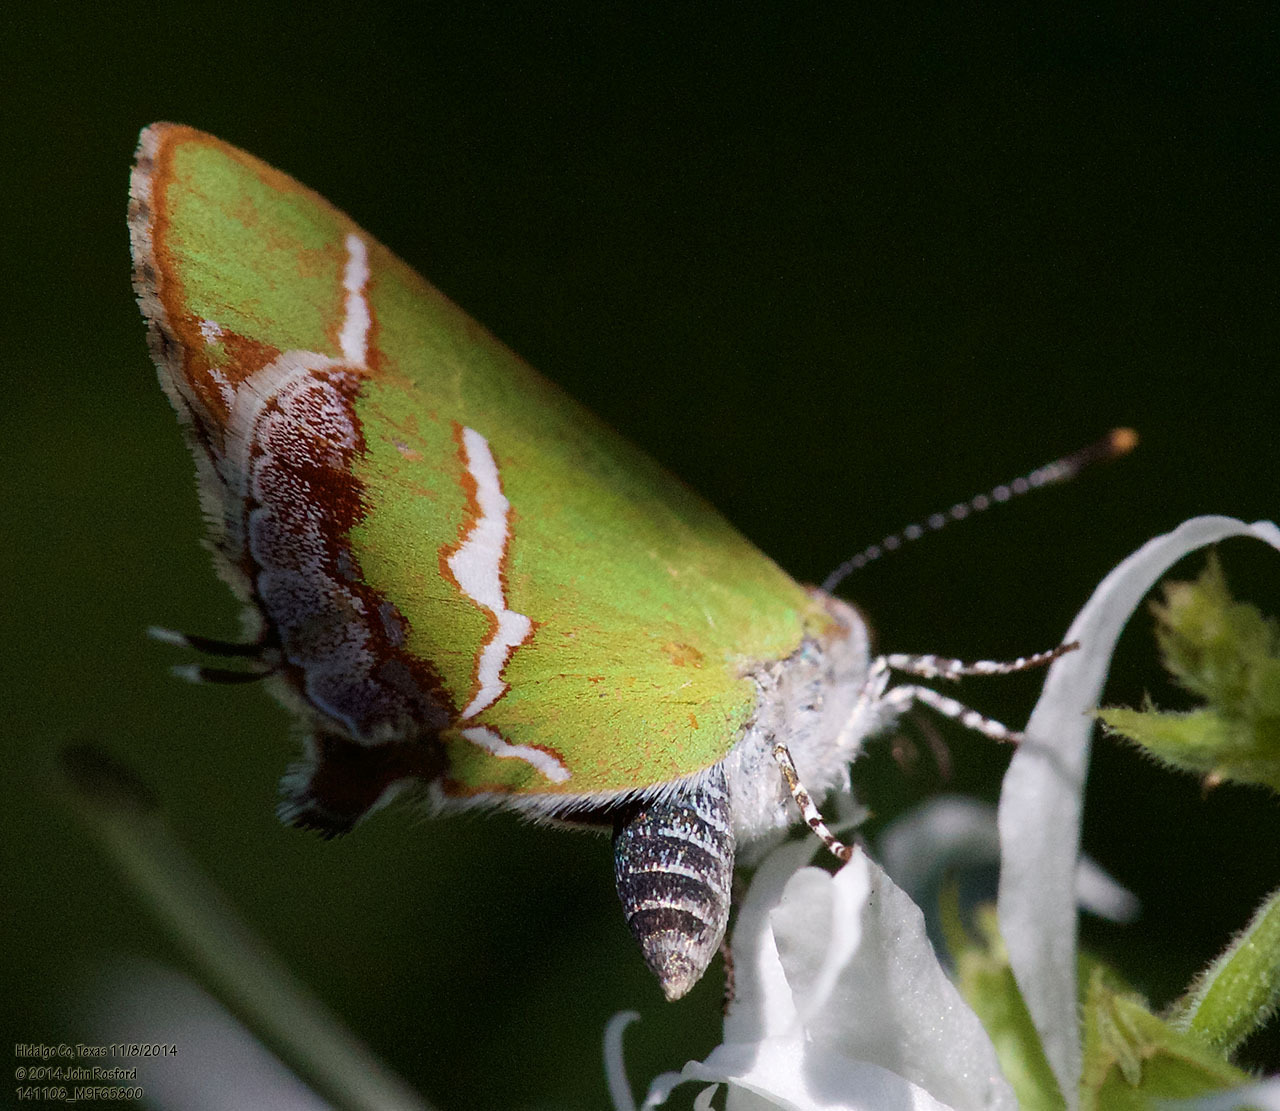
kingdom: Animalia
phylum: Arthropoda
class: Insecta
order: Lepidoptera
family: Lycaenidae
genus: Chlorostrymon
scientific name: Chlorostrymon simaethis
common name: Silver-banded hairstreak
